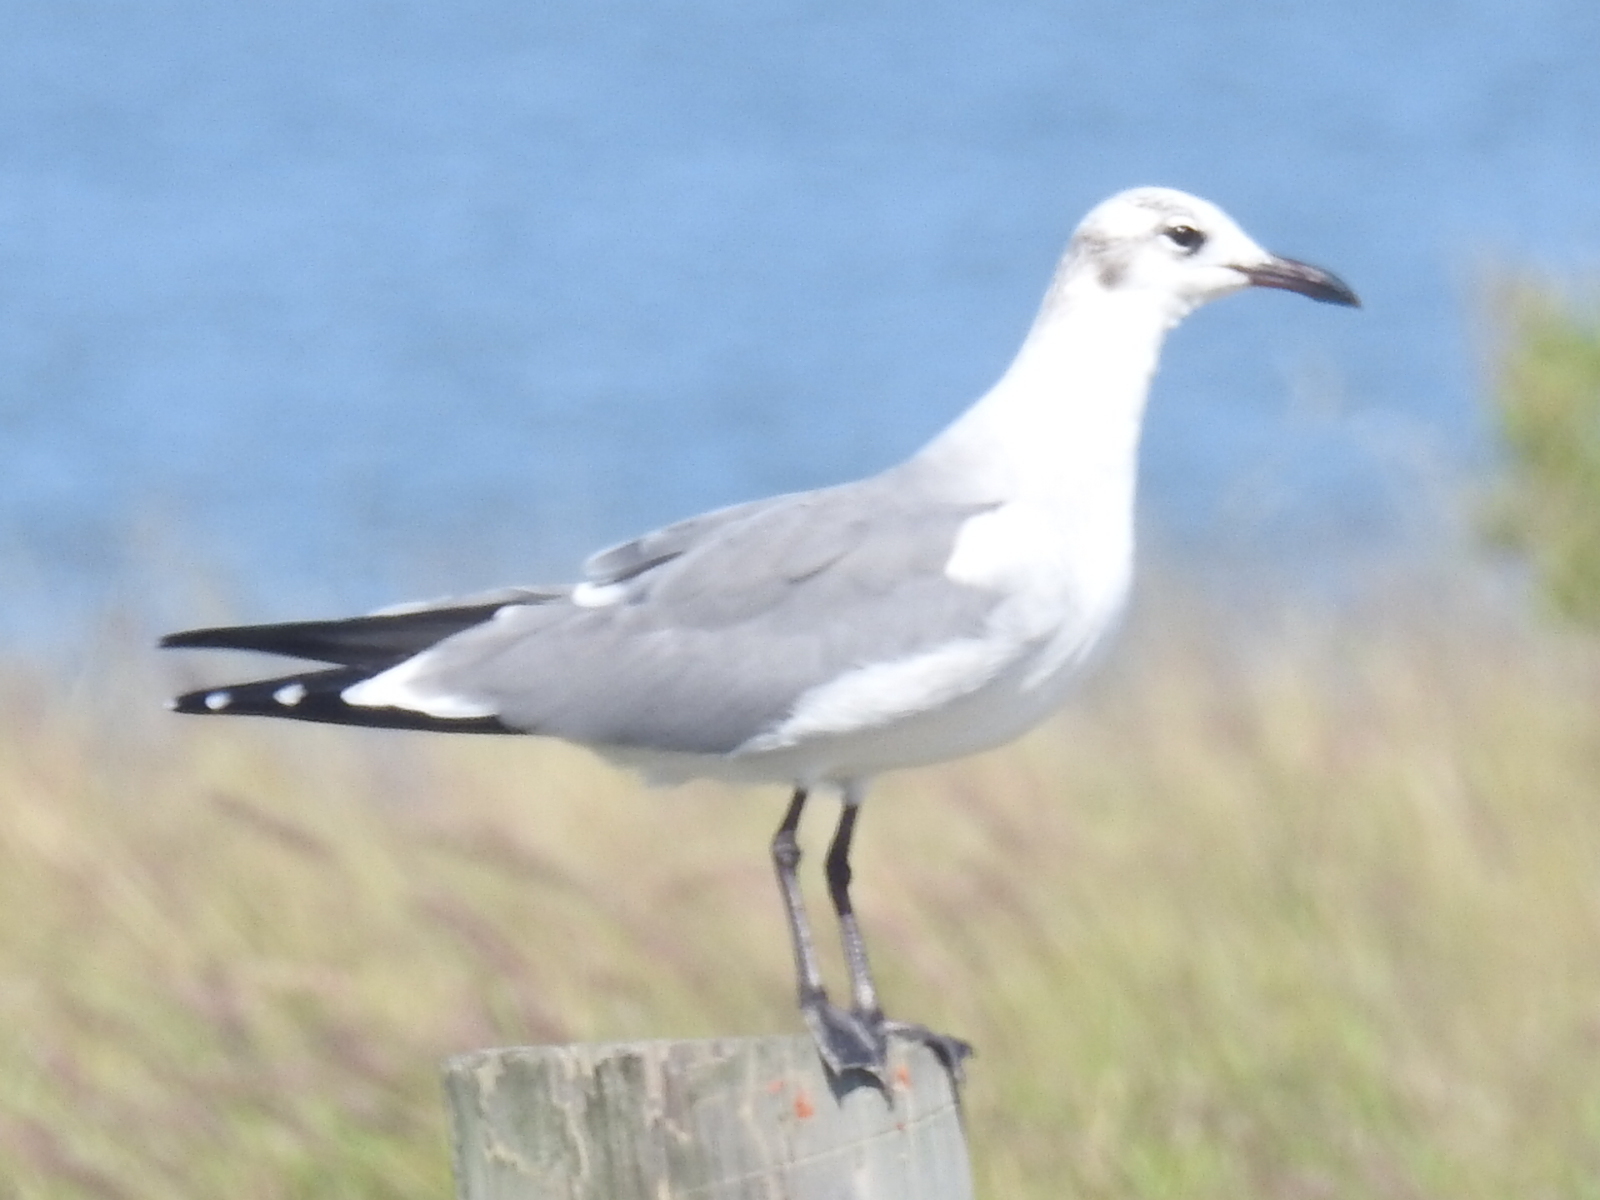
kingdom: Animalia
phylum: Chordata
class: Aves
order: Charadriiformes
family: Laridae
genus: Leucophaeus
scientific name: Leucophaeus atricilla
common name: Laughing gull
